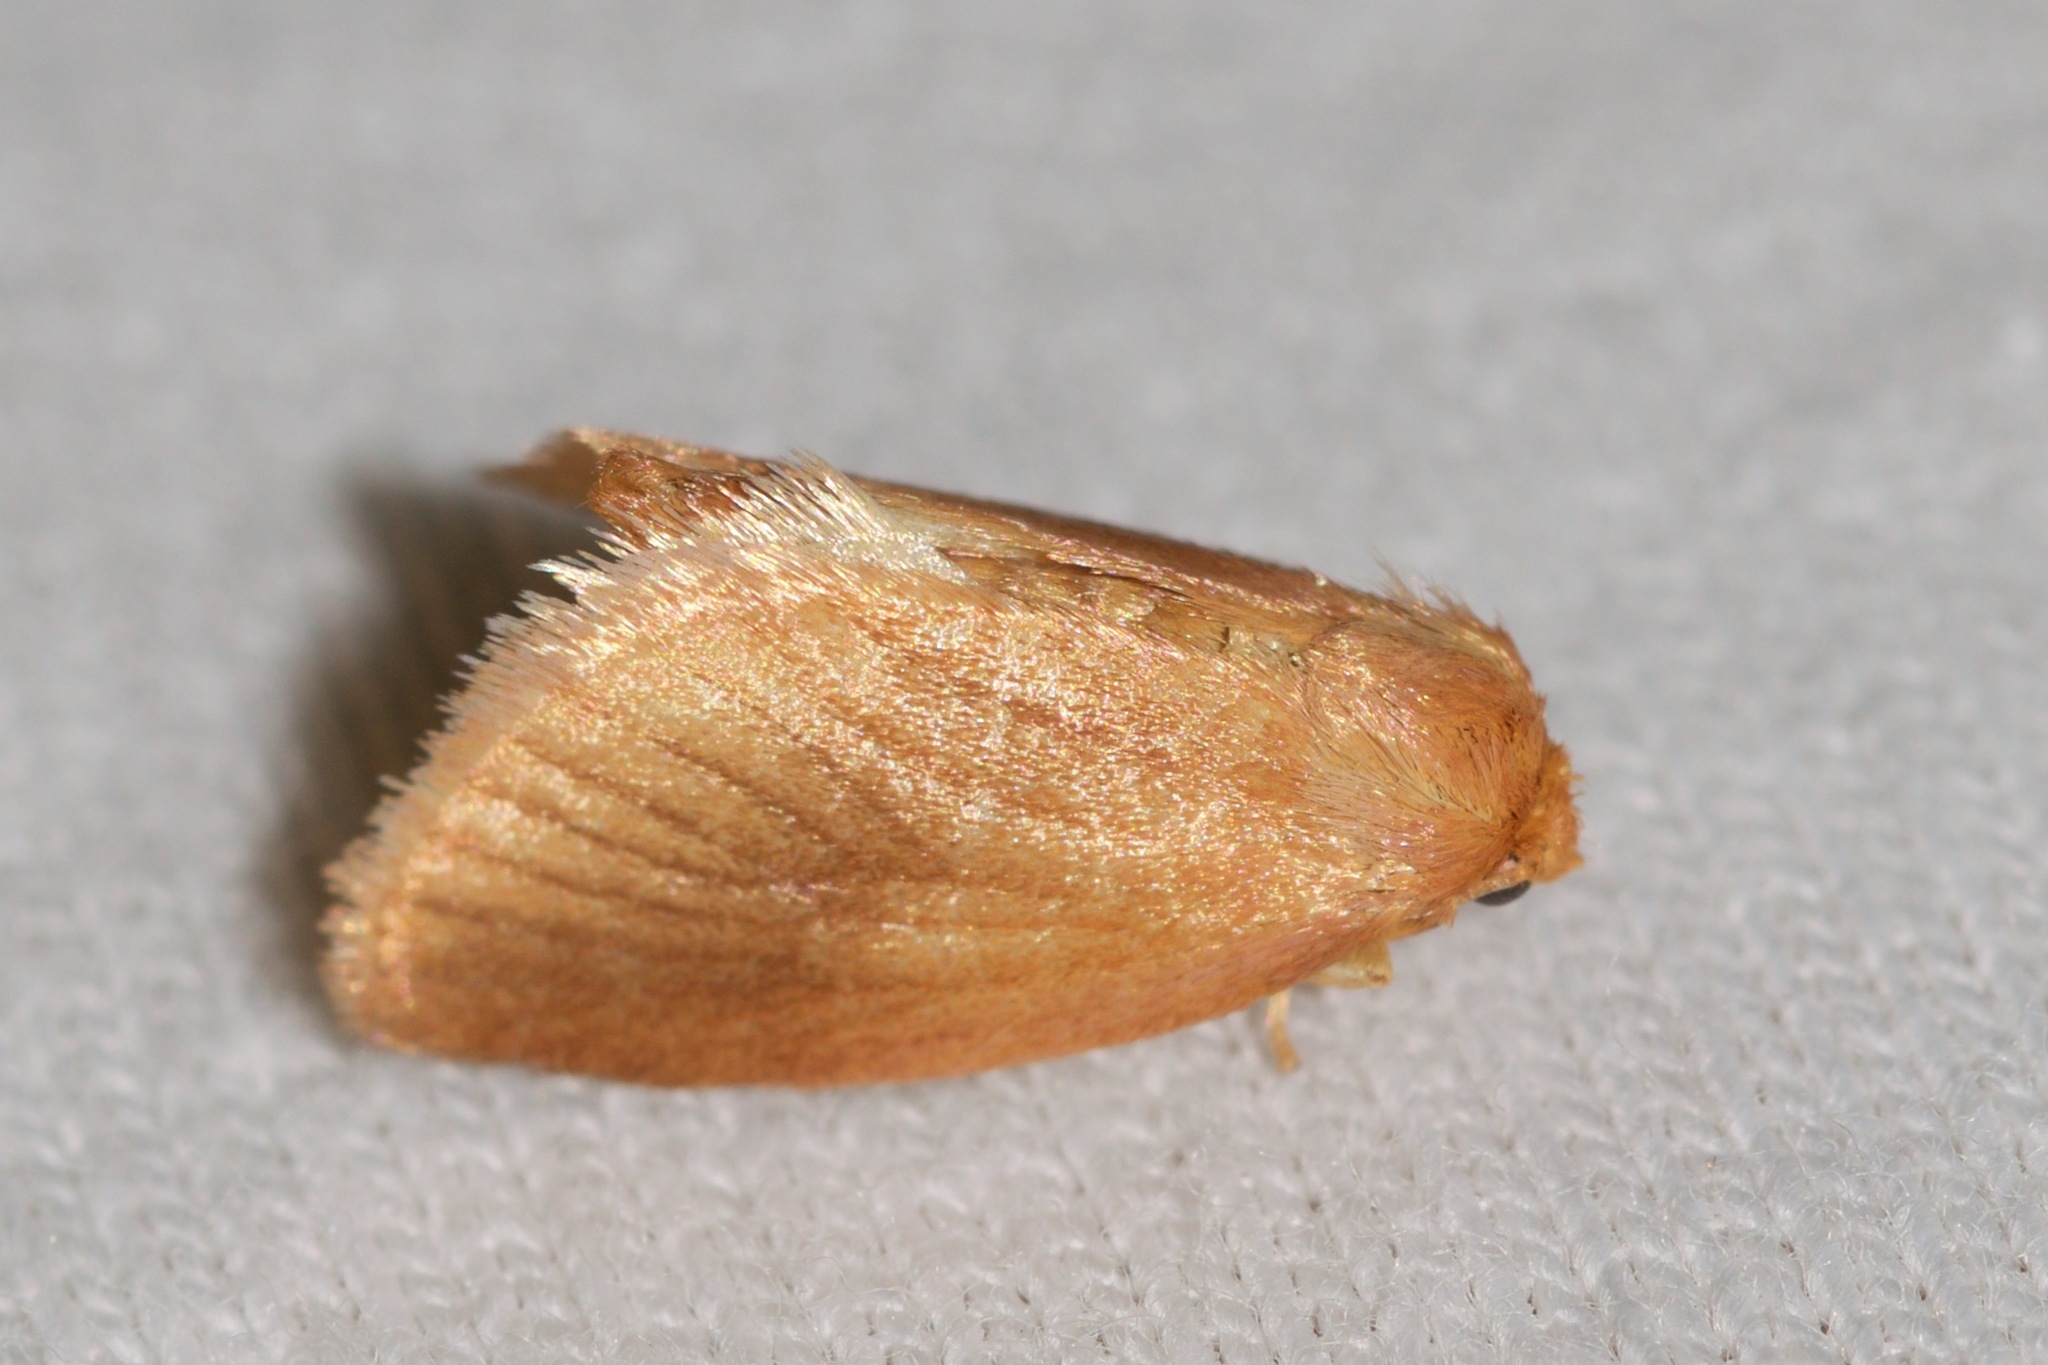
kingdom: Animalia
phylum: Arthropoda
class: Insecta
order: Lepidoptera
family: Limacodidae
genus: Tortricidia
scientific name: Tortricidia testacea
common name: Early button slug moth
